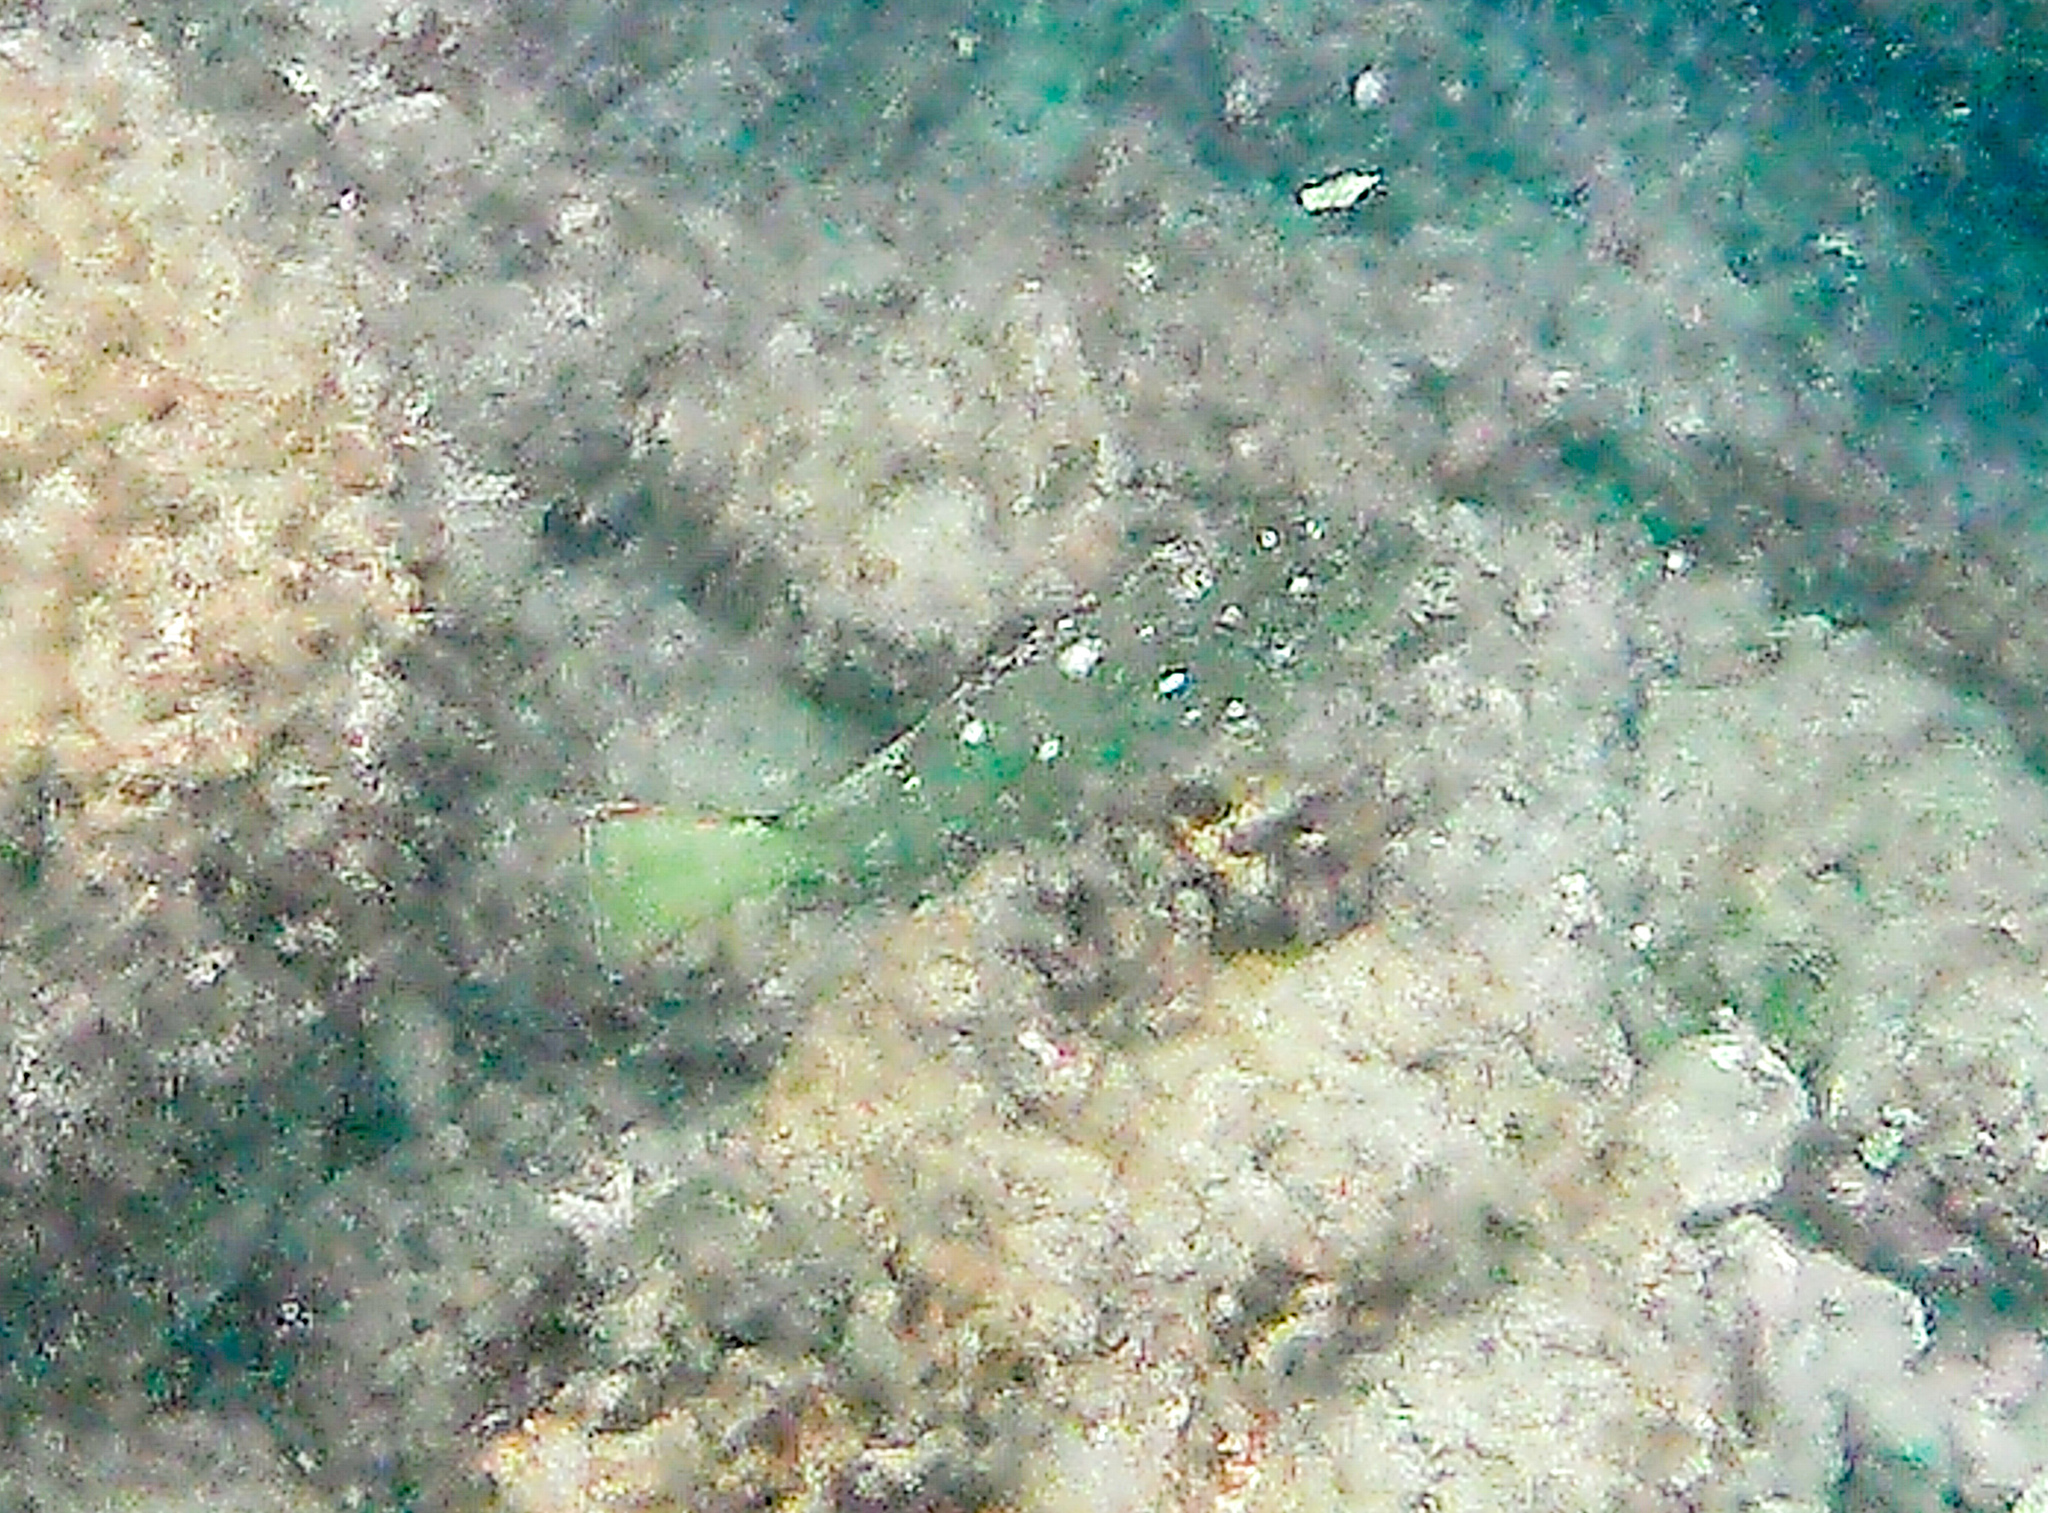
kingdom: Animalia
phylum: Chordata
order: Perciformes
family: Serranidae
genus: Epinephelus
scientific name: Epinephelus labriformis
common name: Flag cabrilla
